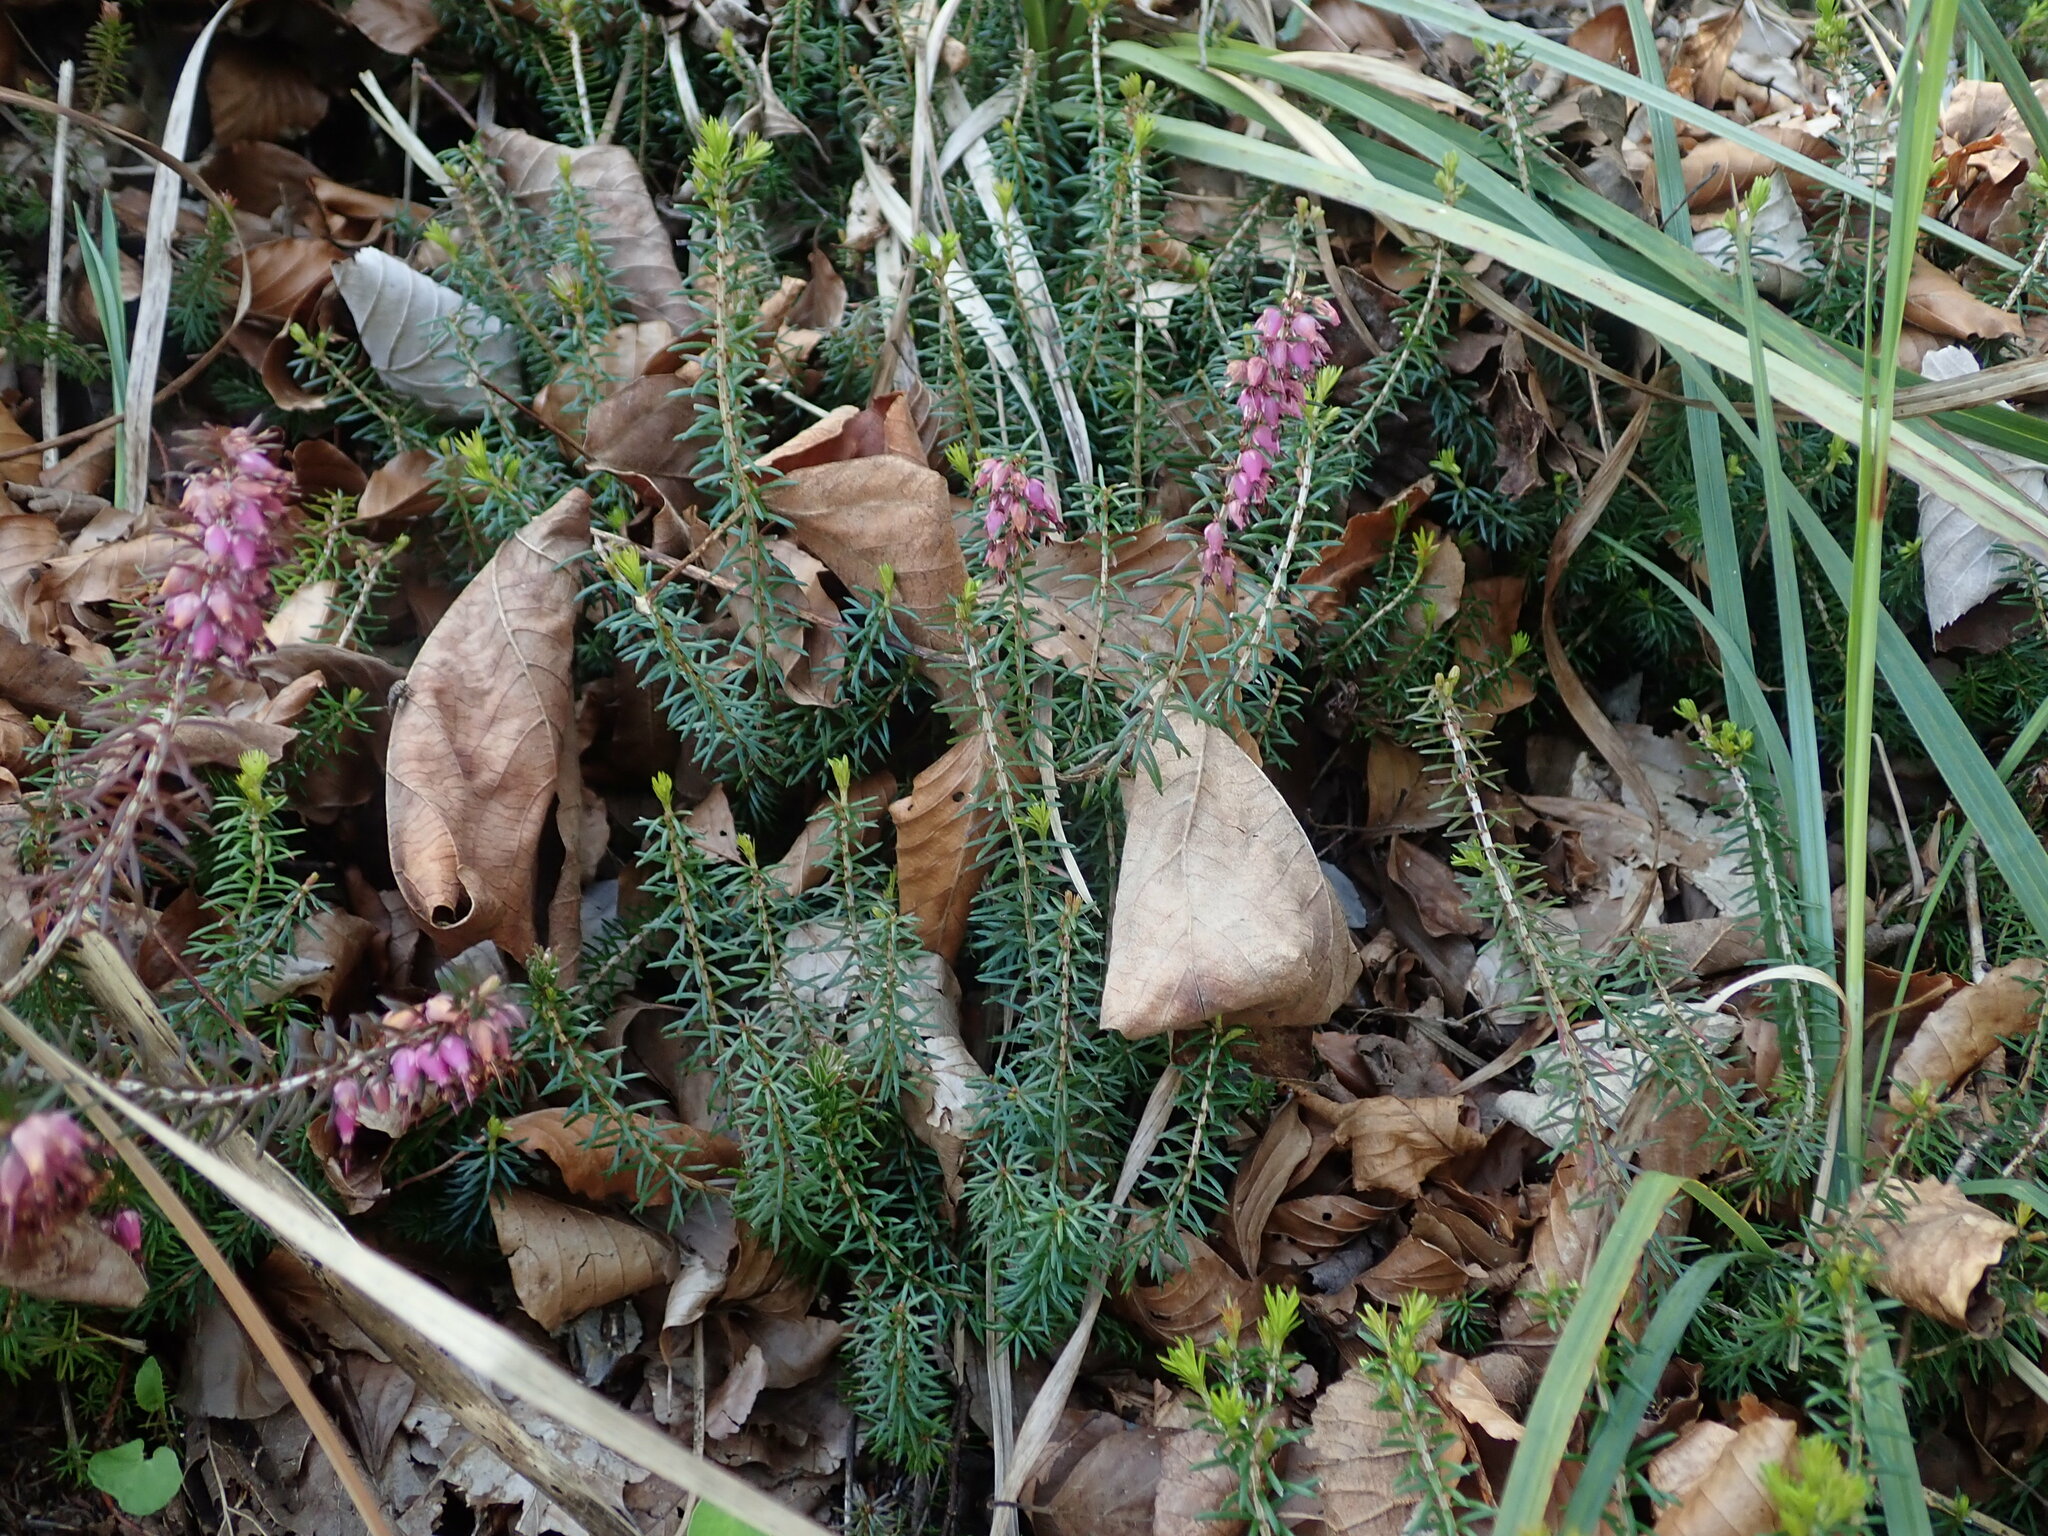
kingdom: Plantae
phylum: Tracheophyta
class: Magnoliopsida
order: Ericales
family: Ericaceae
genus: Erica
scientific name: Erica carnea
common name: Winter heath
